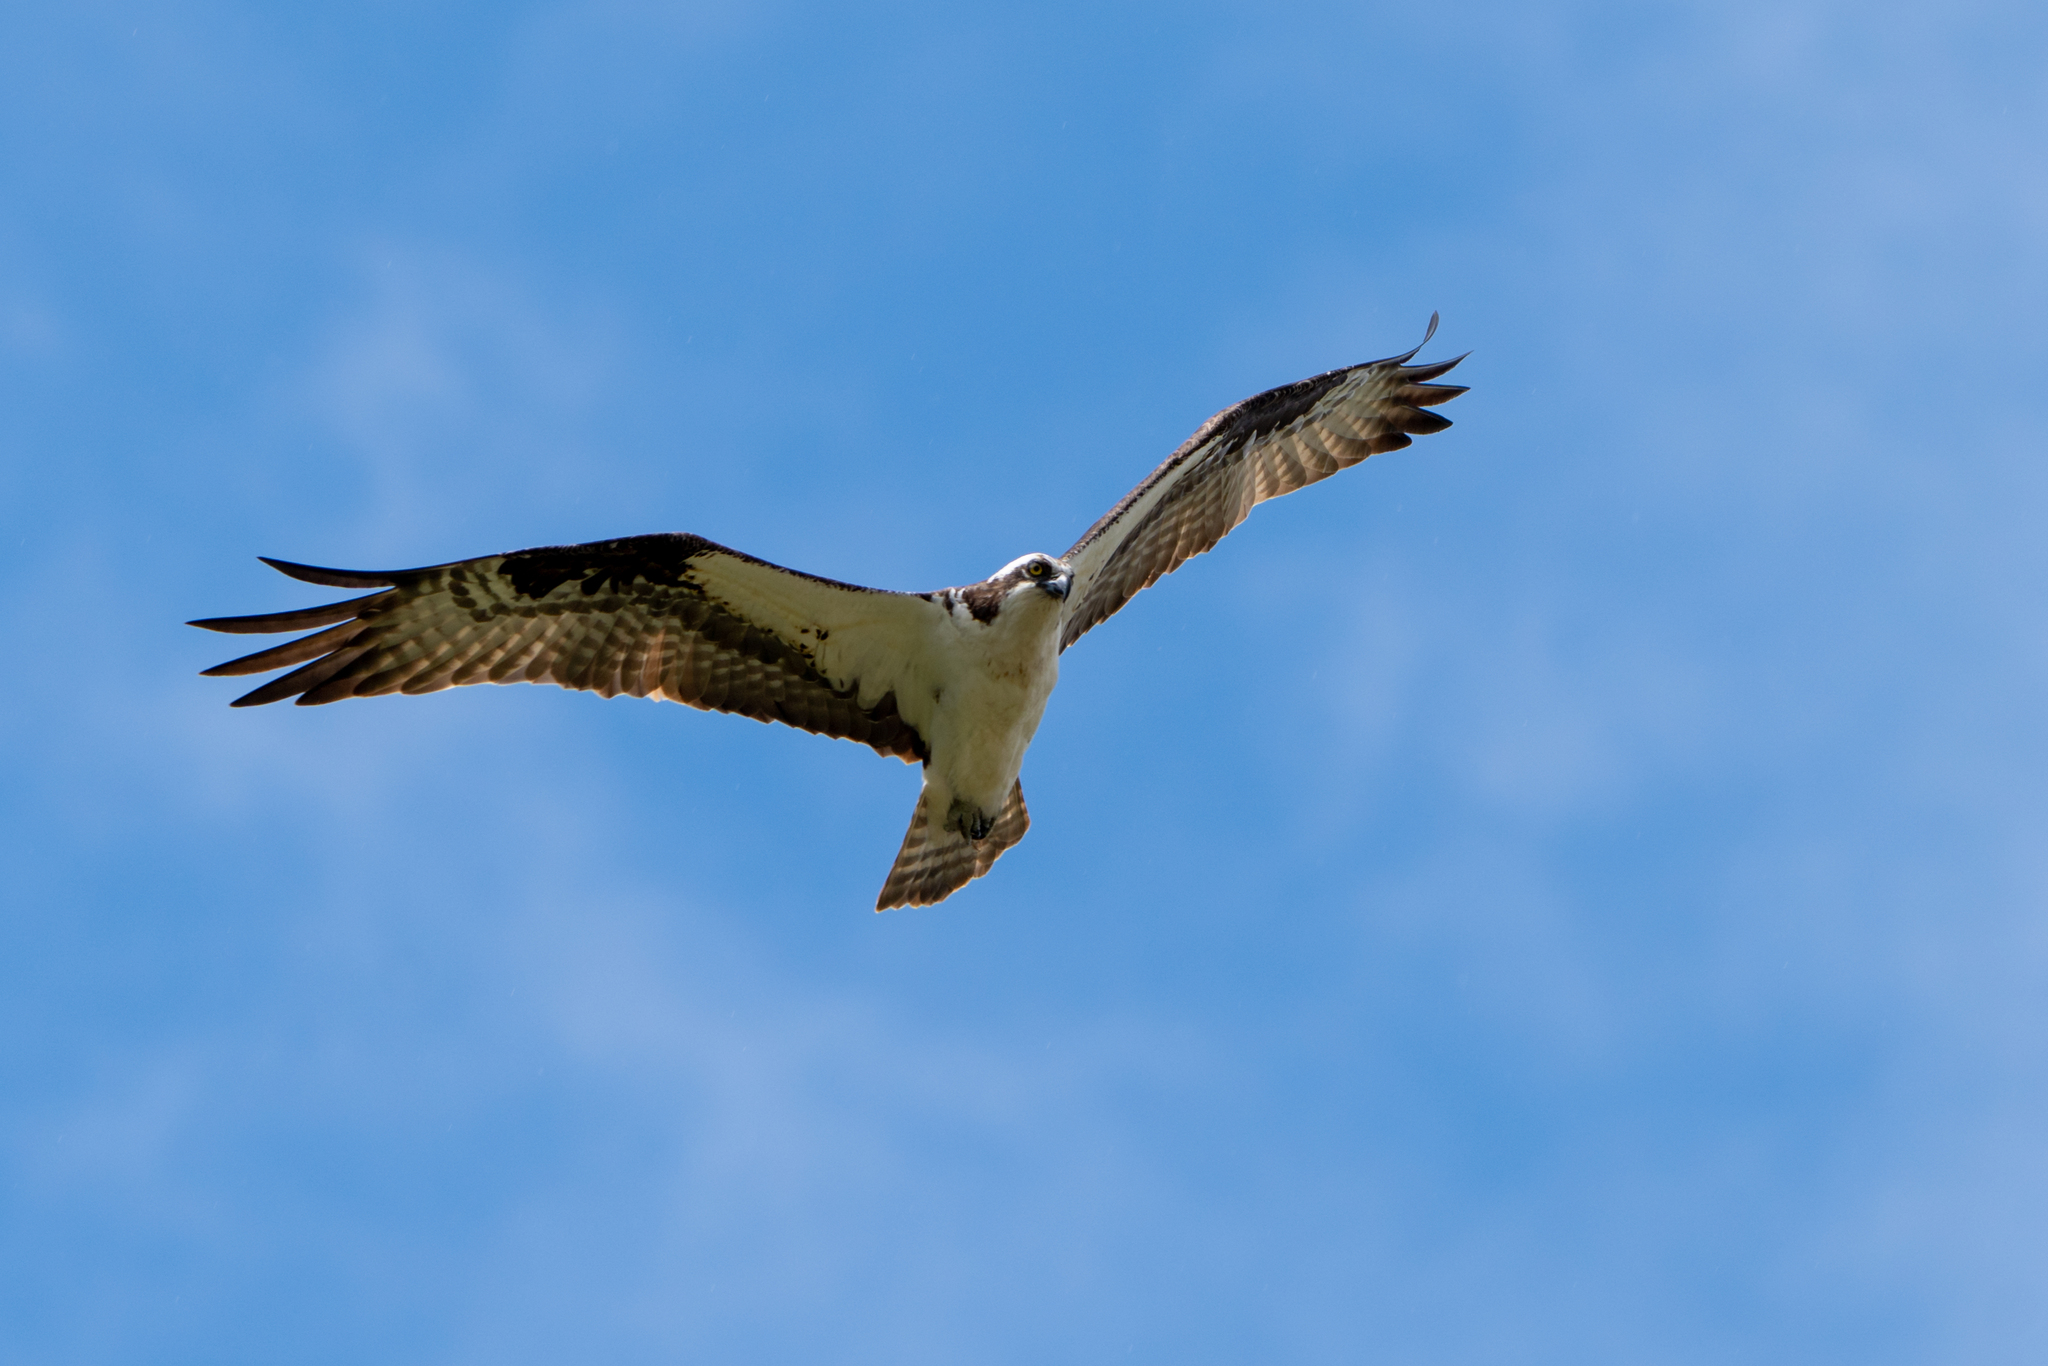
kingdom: Animalia
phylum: Chordata
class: Aves
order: Accipitriformes
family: Pandionidae
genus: Pandion
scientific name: Pandion haliaetus
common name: Osprey
